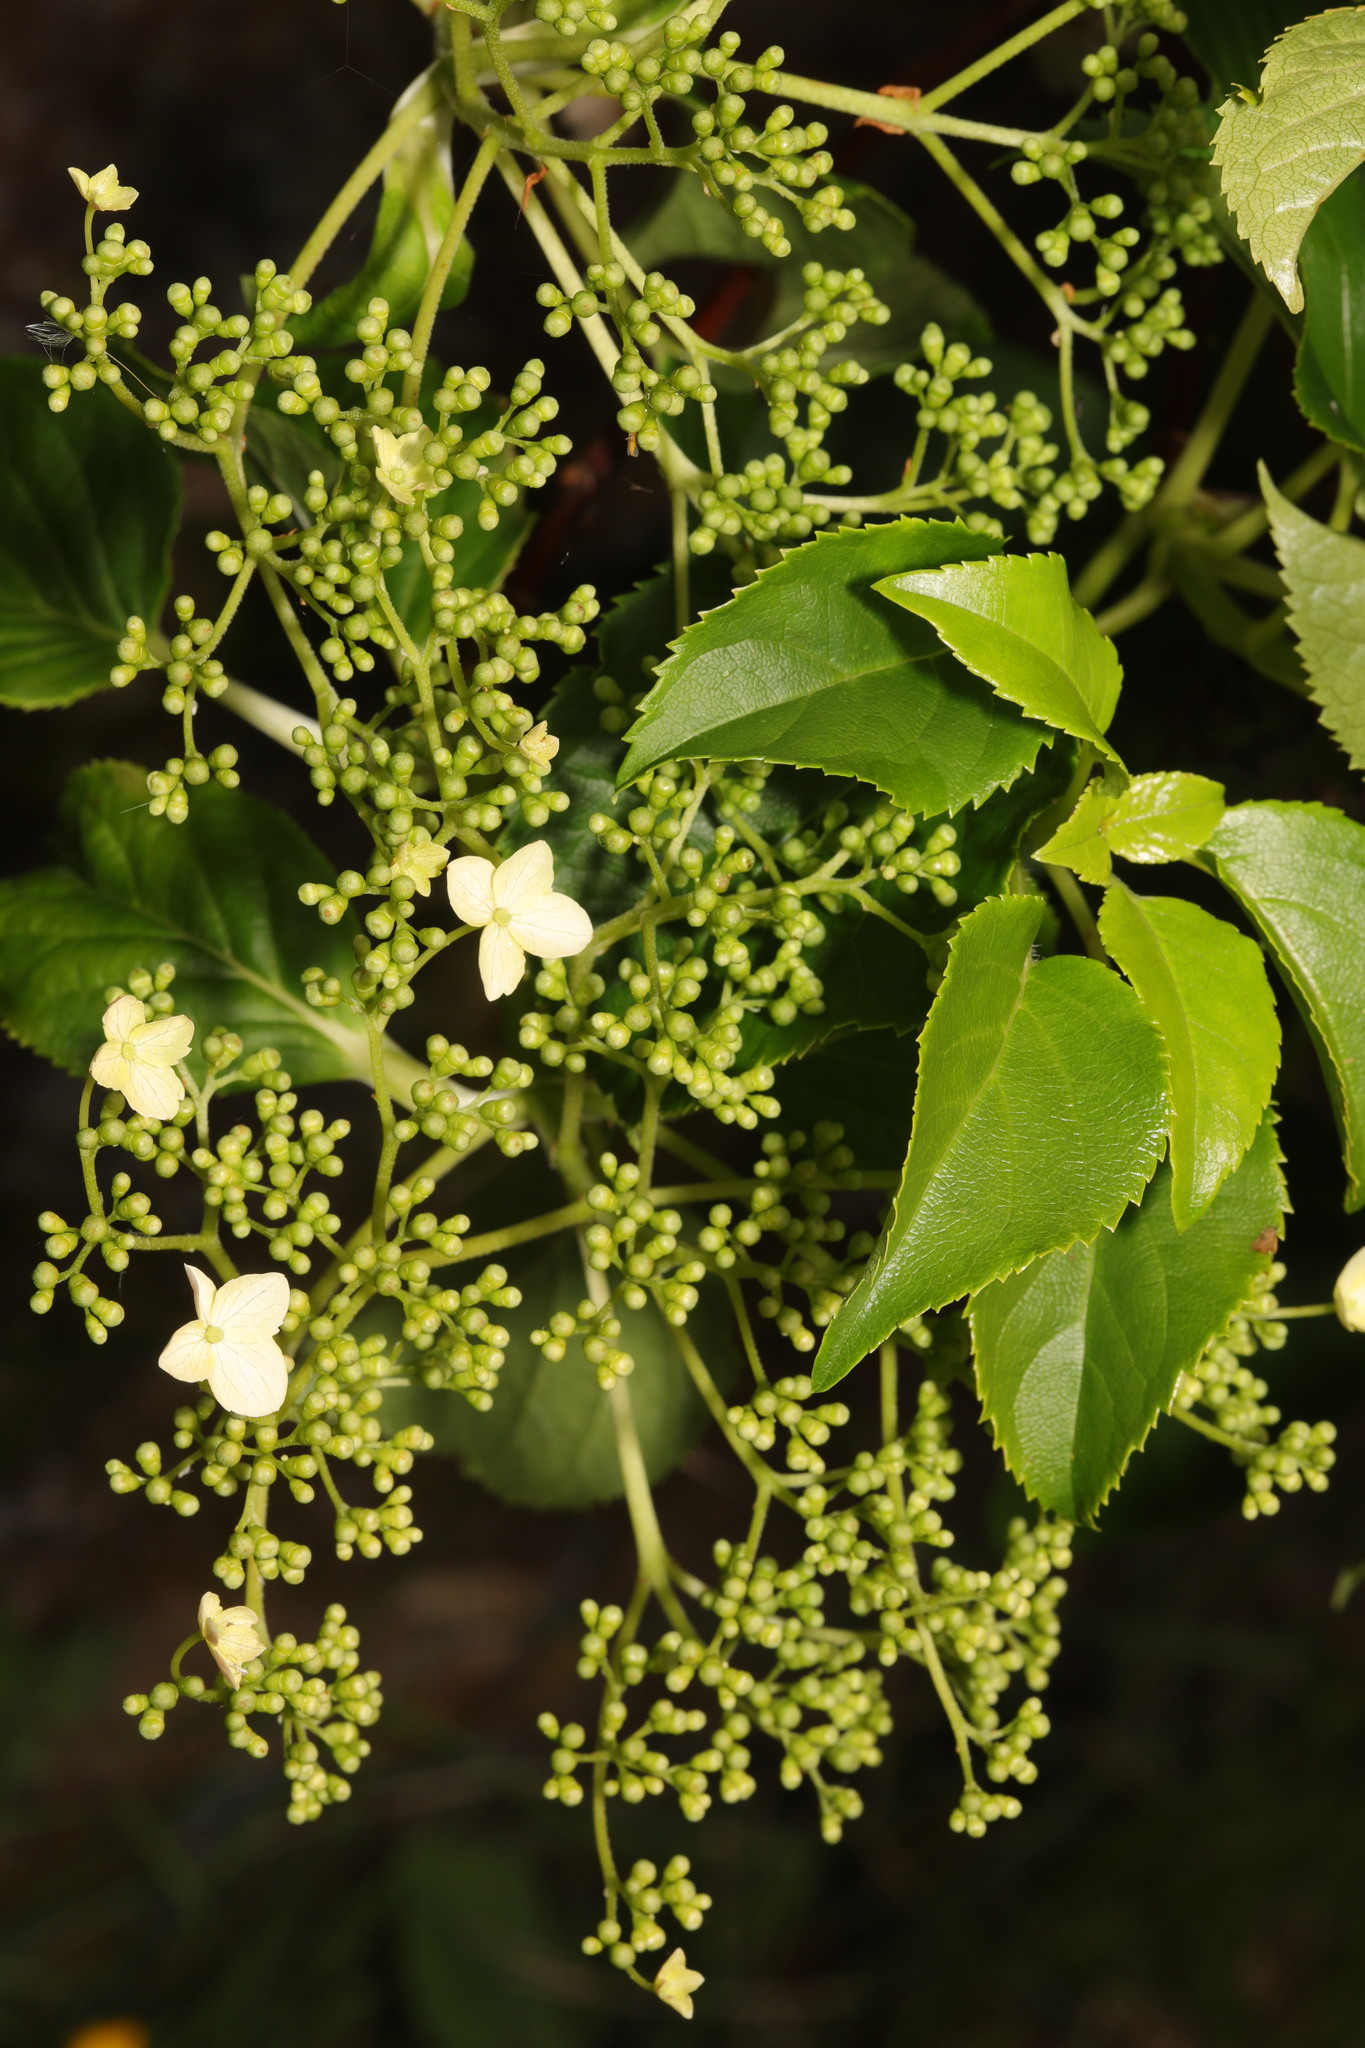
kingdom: Plantae
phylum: Tracheophyta
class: Magnoliopsida
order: Cornales
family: Hydrangeaceae
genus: Hydrangea
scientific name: Hydrangea petiolaris
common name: Japanese climbing hydrangea
